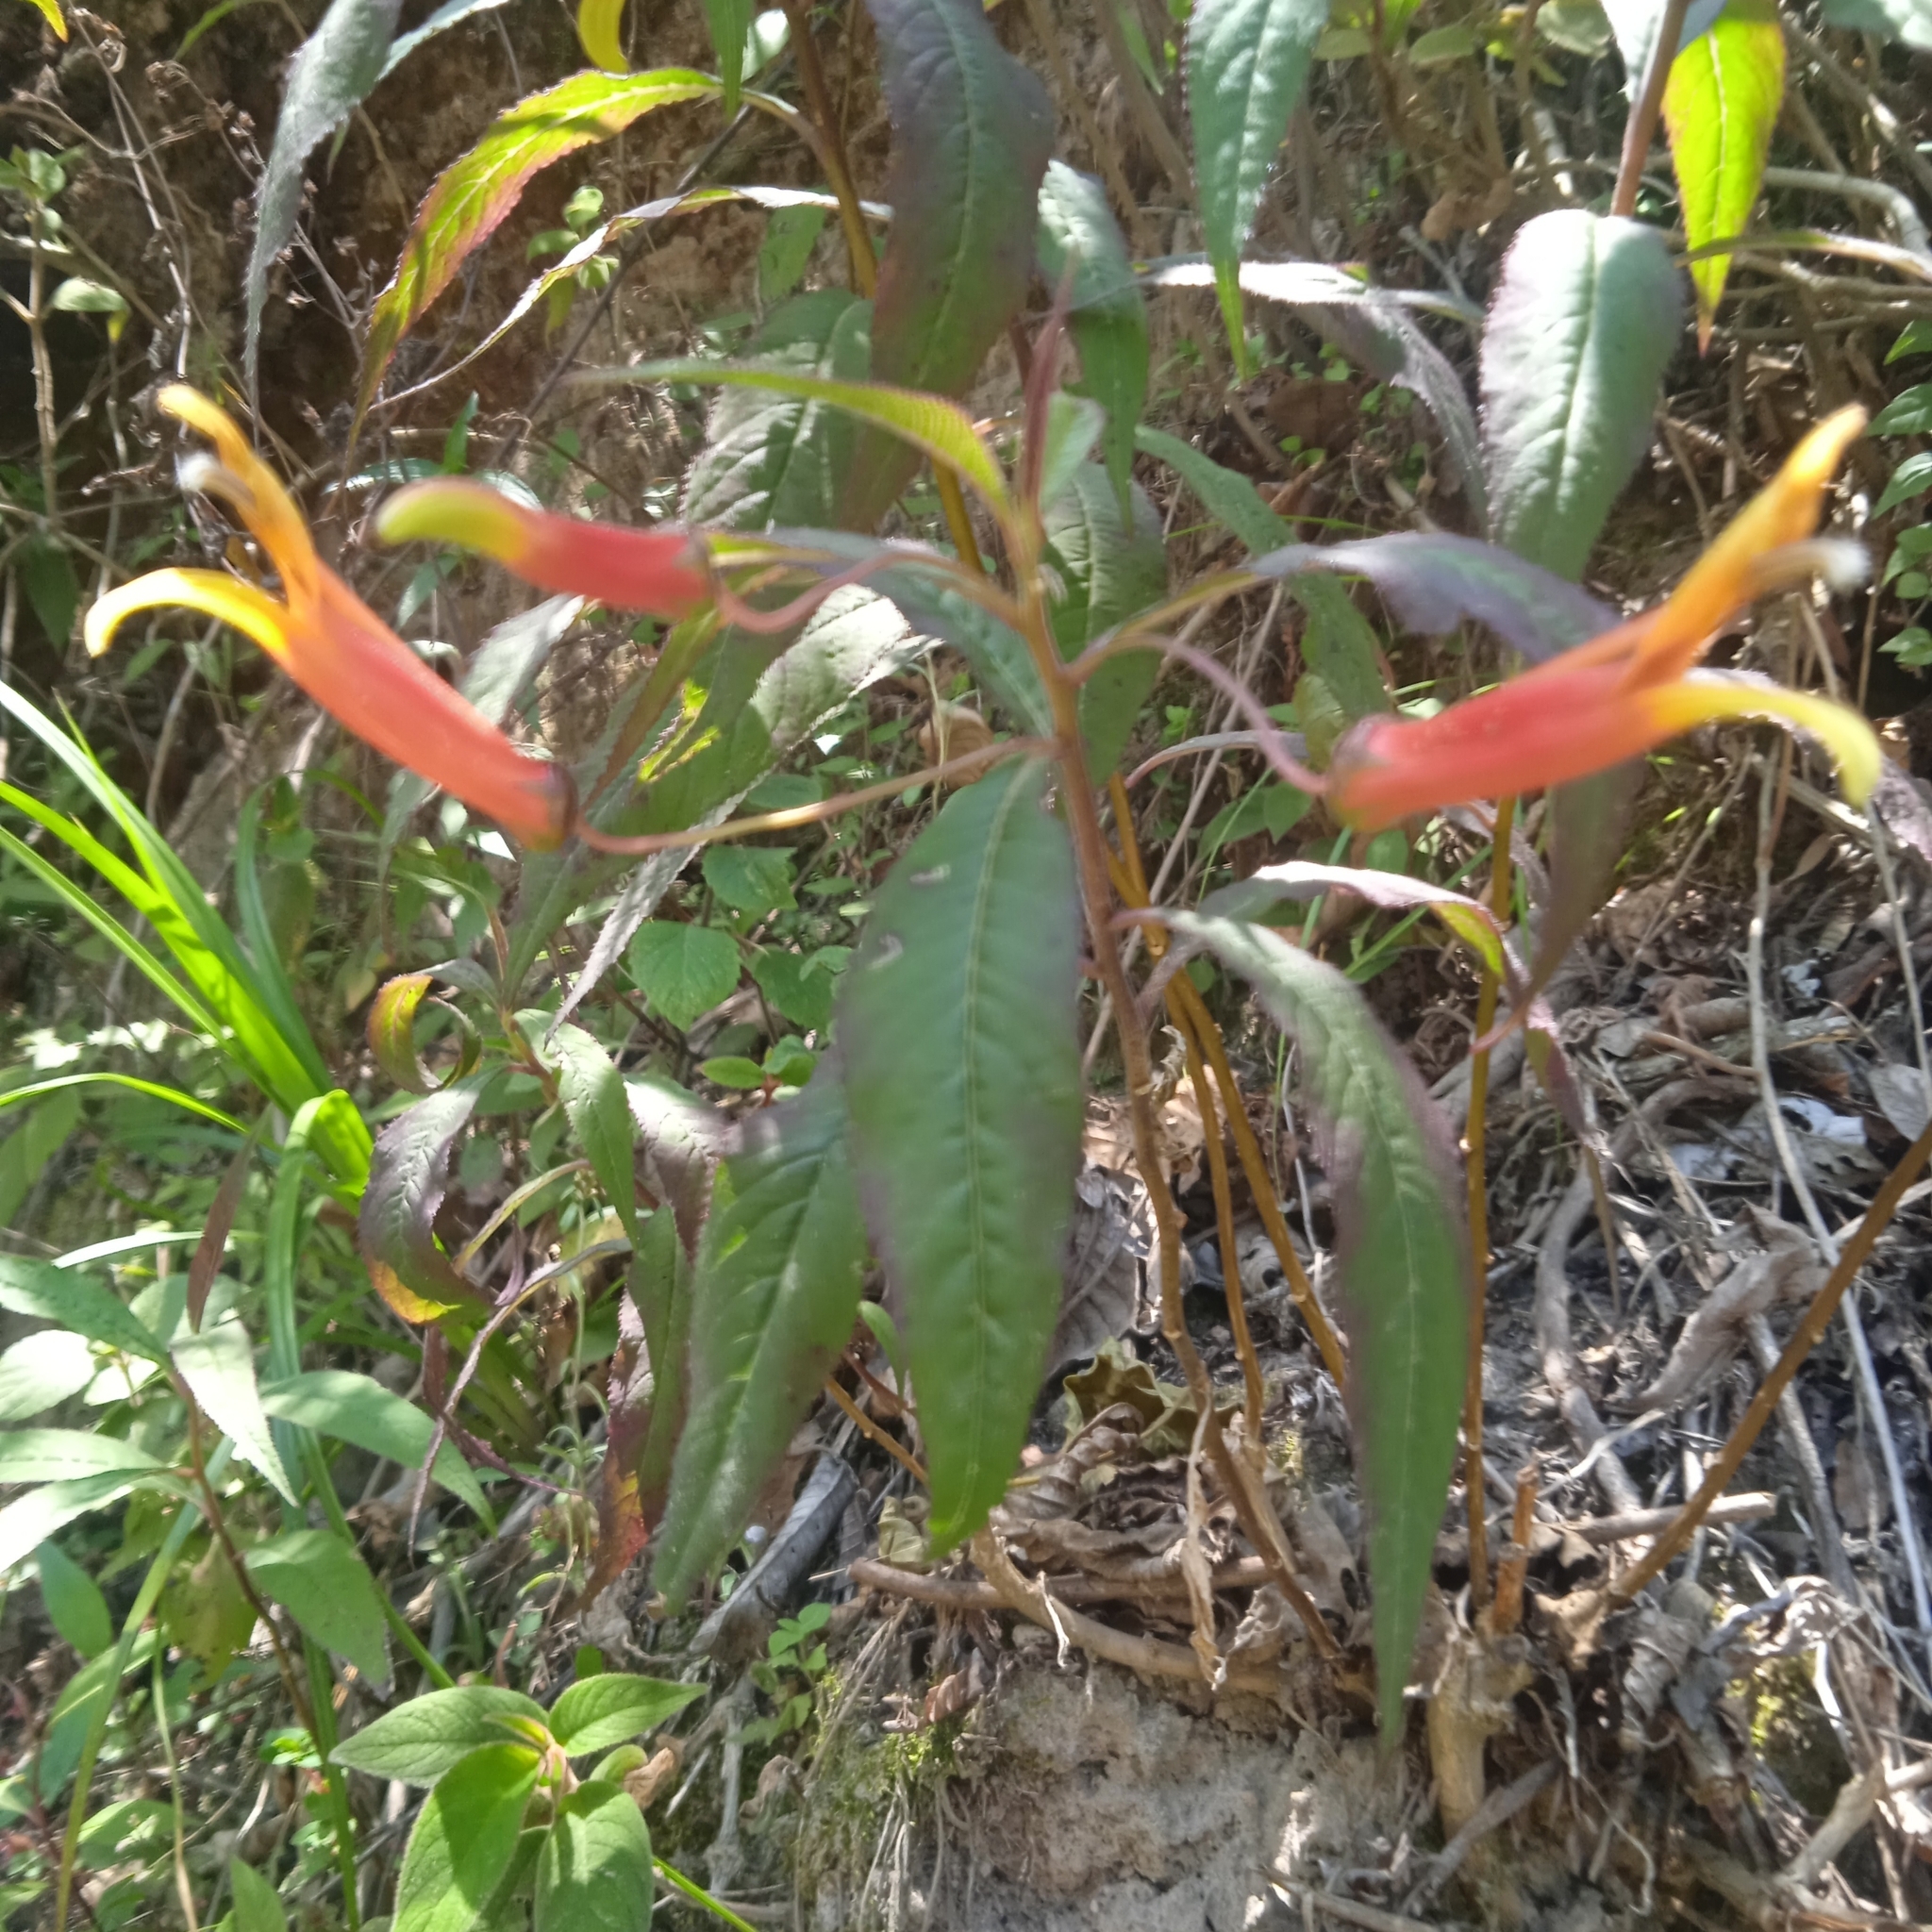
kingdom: Plantae
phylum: Tracheophyta
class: Magnoliopsida
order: Asterales
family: Campanulaceae
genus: Lobelia
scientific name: Lobelia laxiflora
